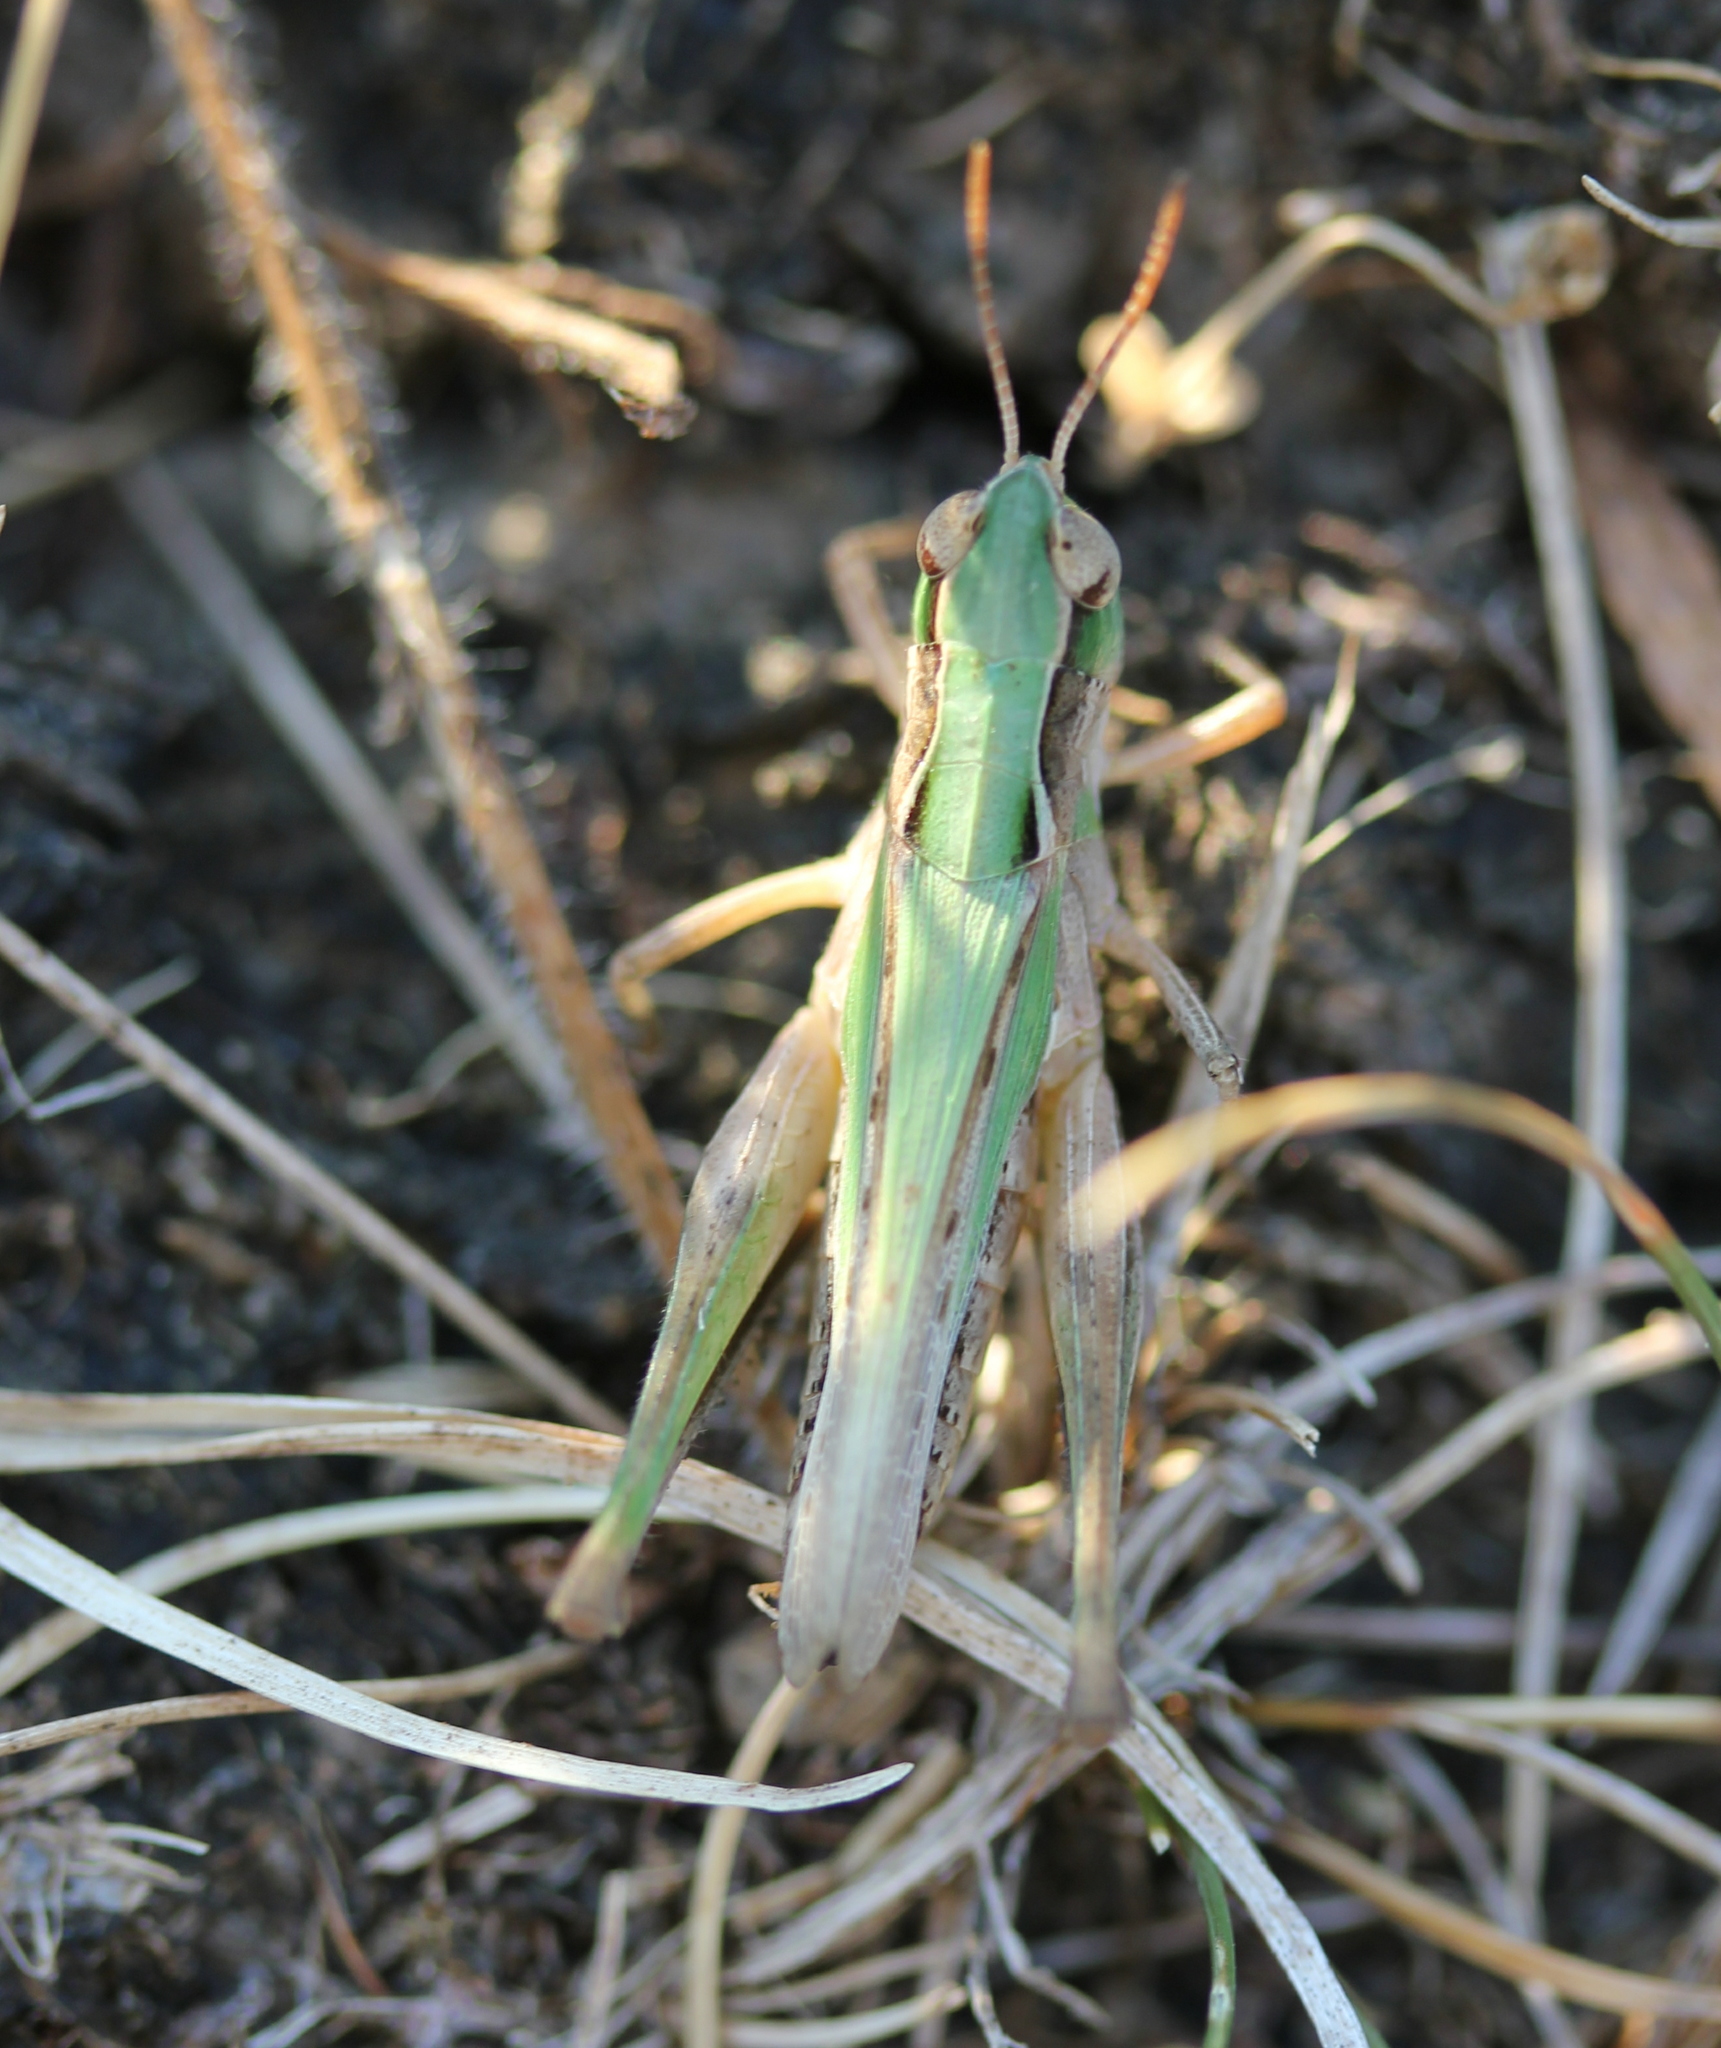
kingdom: Animalia
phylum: Arthropoda
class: Insecta
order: Orthoptera
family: Acrididae
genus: Orphulella
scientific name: Orphulella speciosa
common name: Pasture grasshopper
